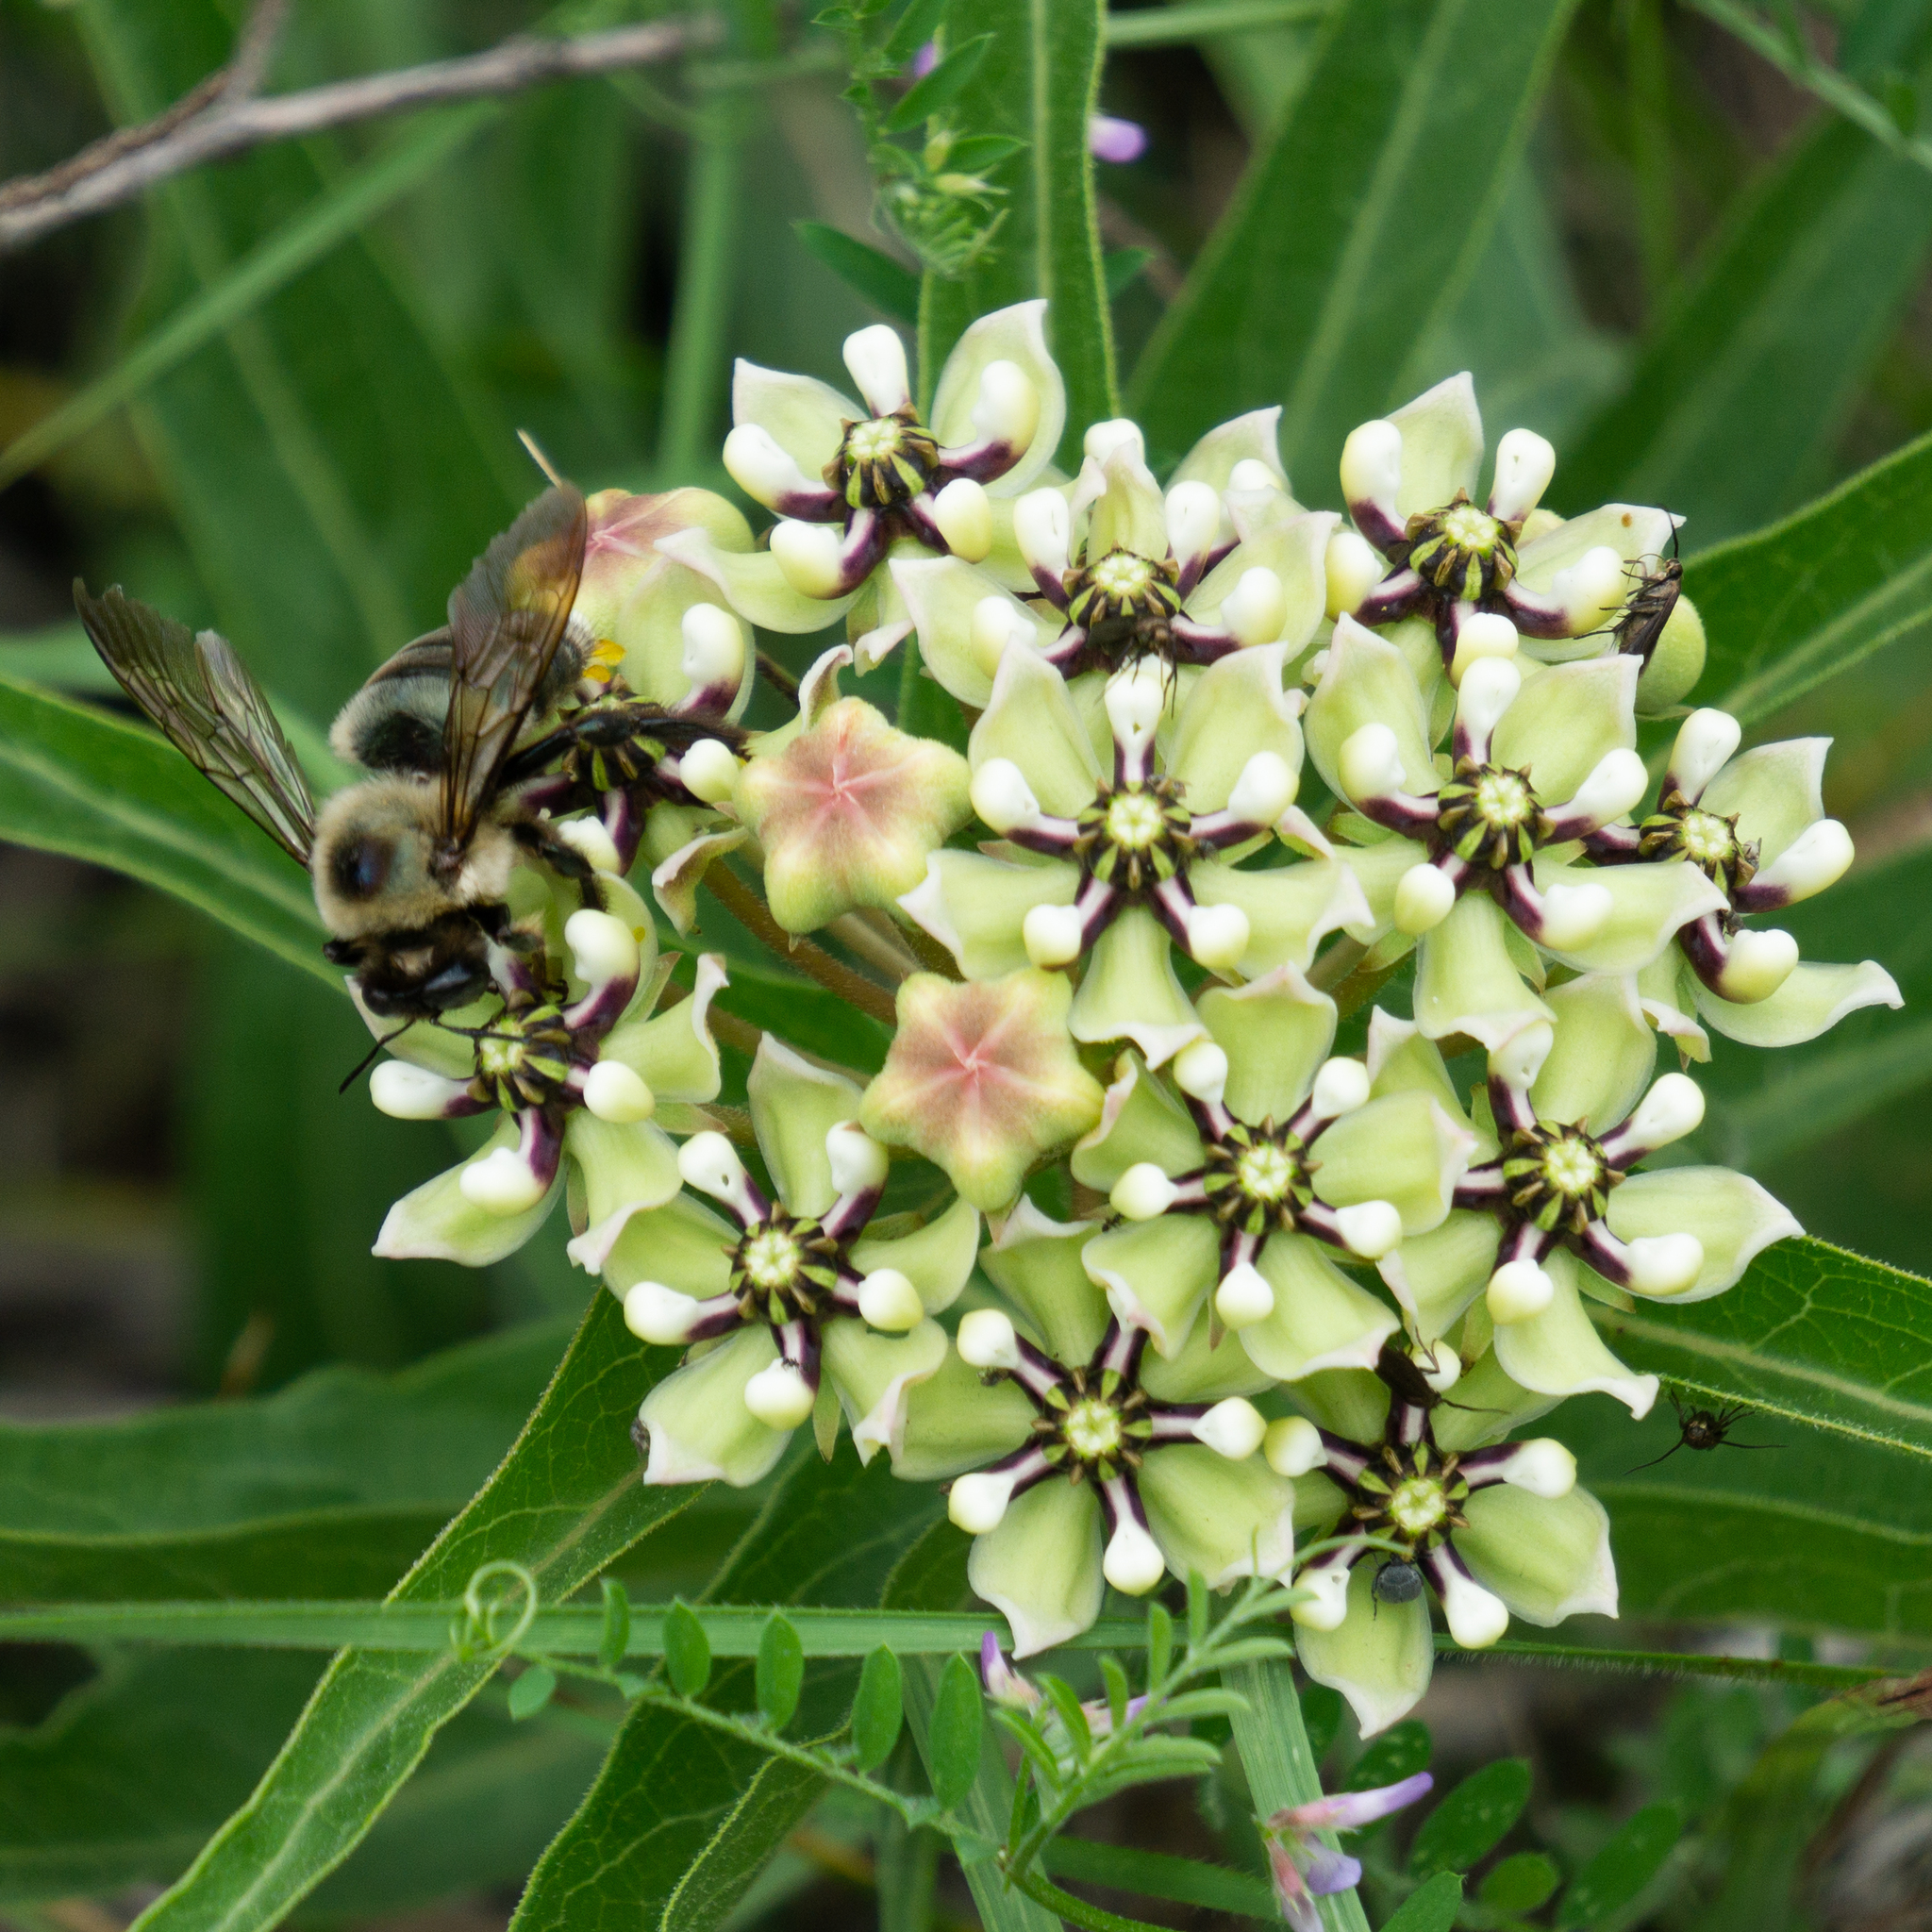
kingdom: Animalia
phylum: Arthropoda
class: Insecta
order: Hymenoptera
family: Apidae
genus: Xylocopa
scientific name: Xylocopa virginica
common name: Carpenter bee
